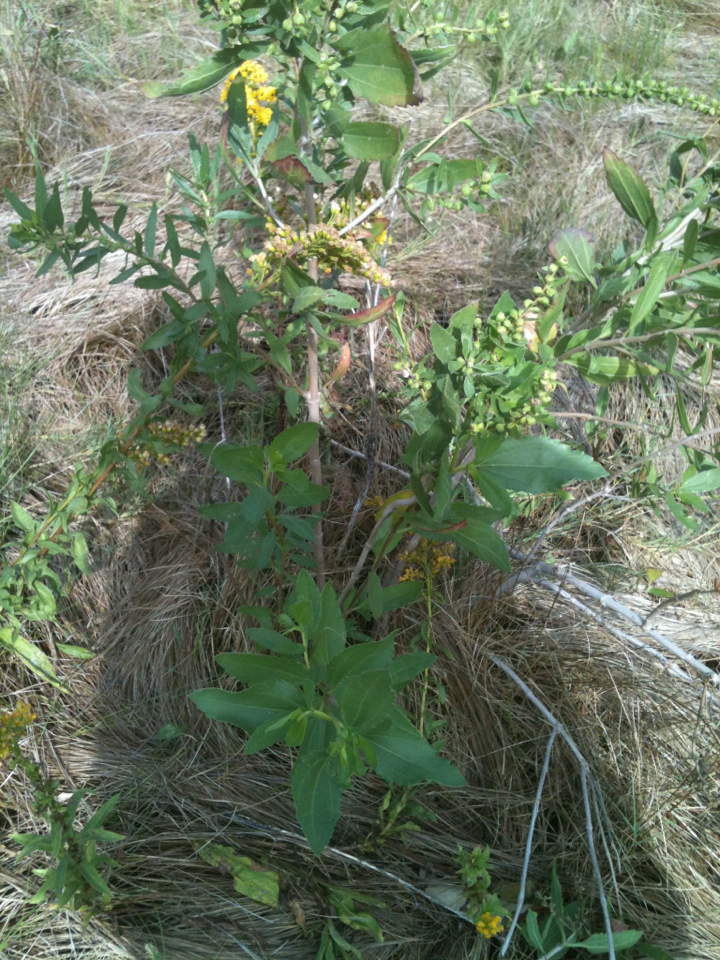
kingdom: Plantae
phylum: Tracheophyta
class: Magnoliopsida
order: Asterales
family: Asteraceae
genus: Iva
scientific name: Iva frutescens
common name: Big-leaved marsh-elder
